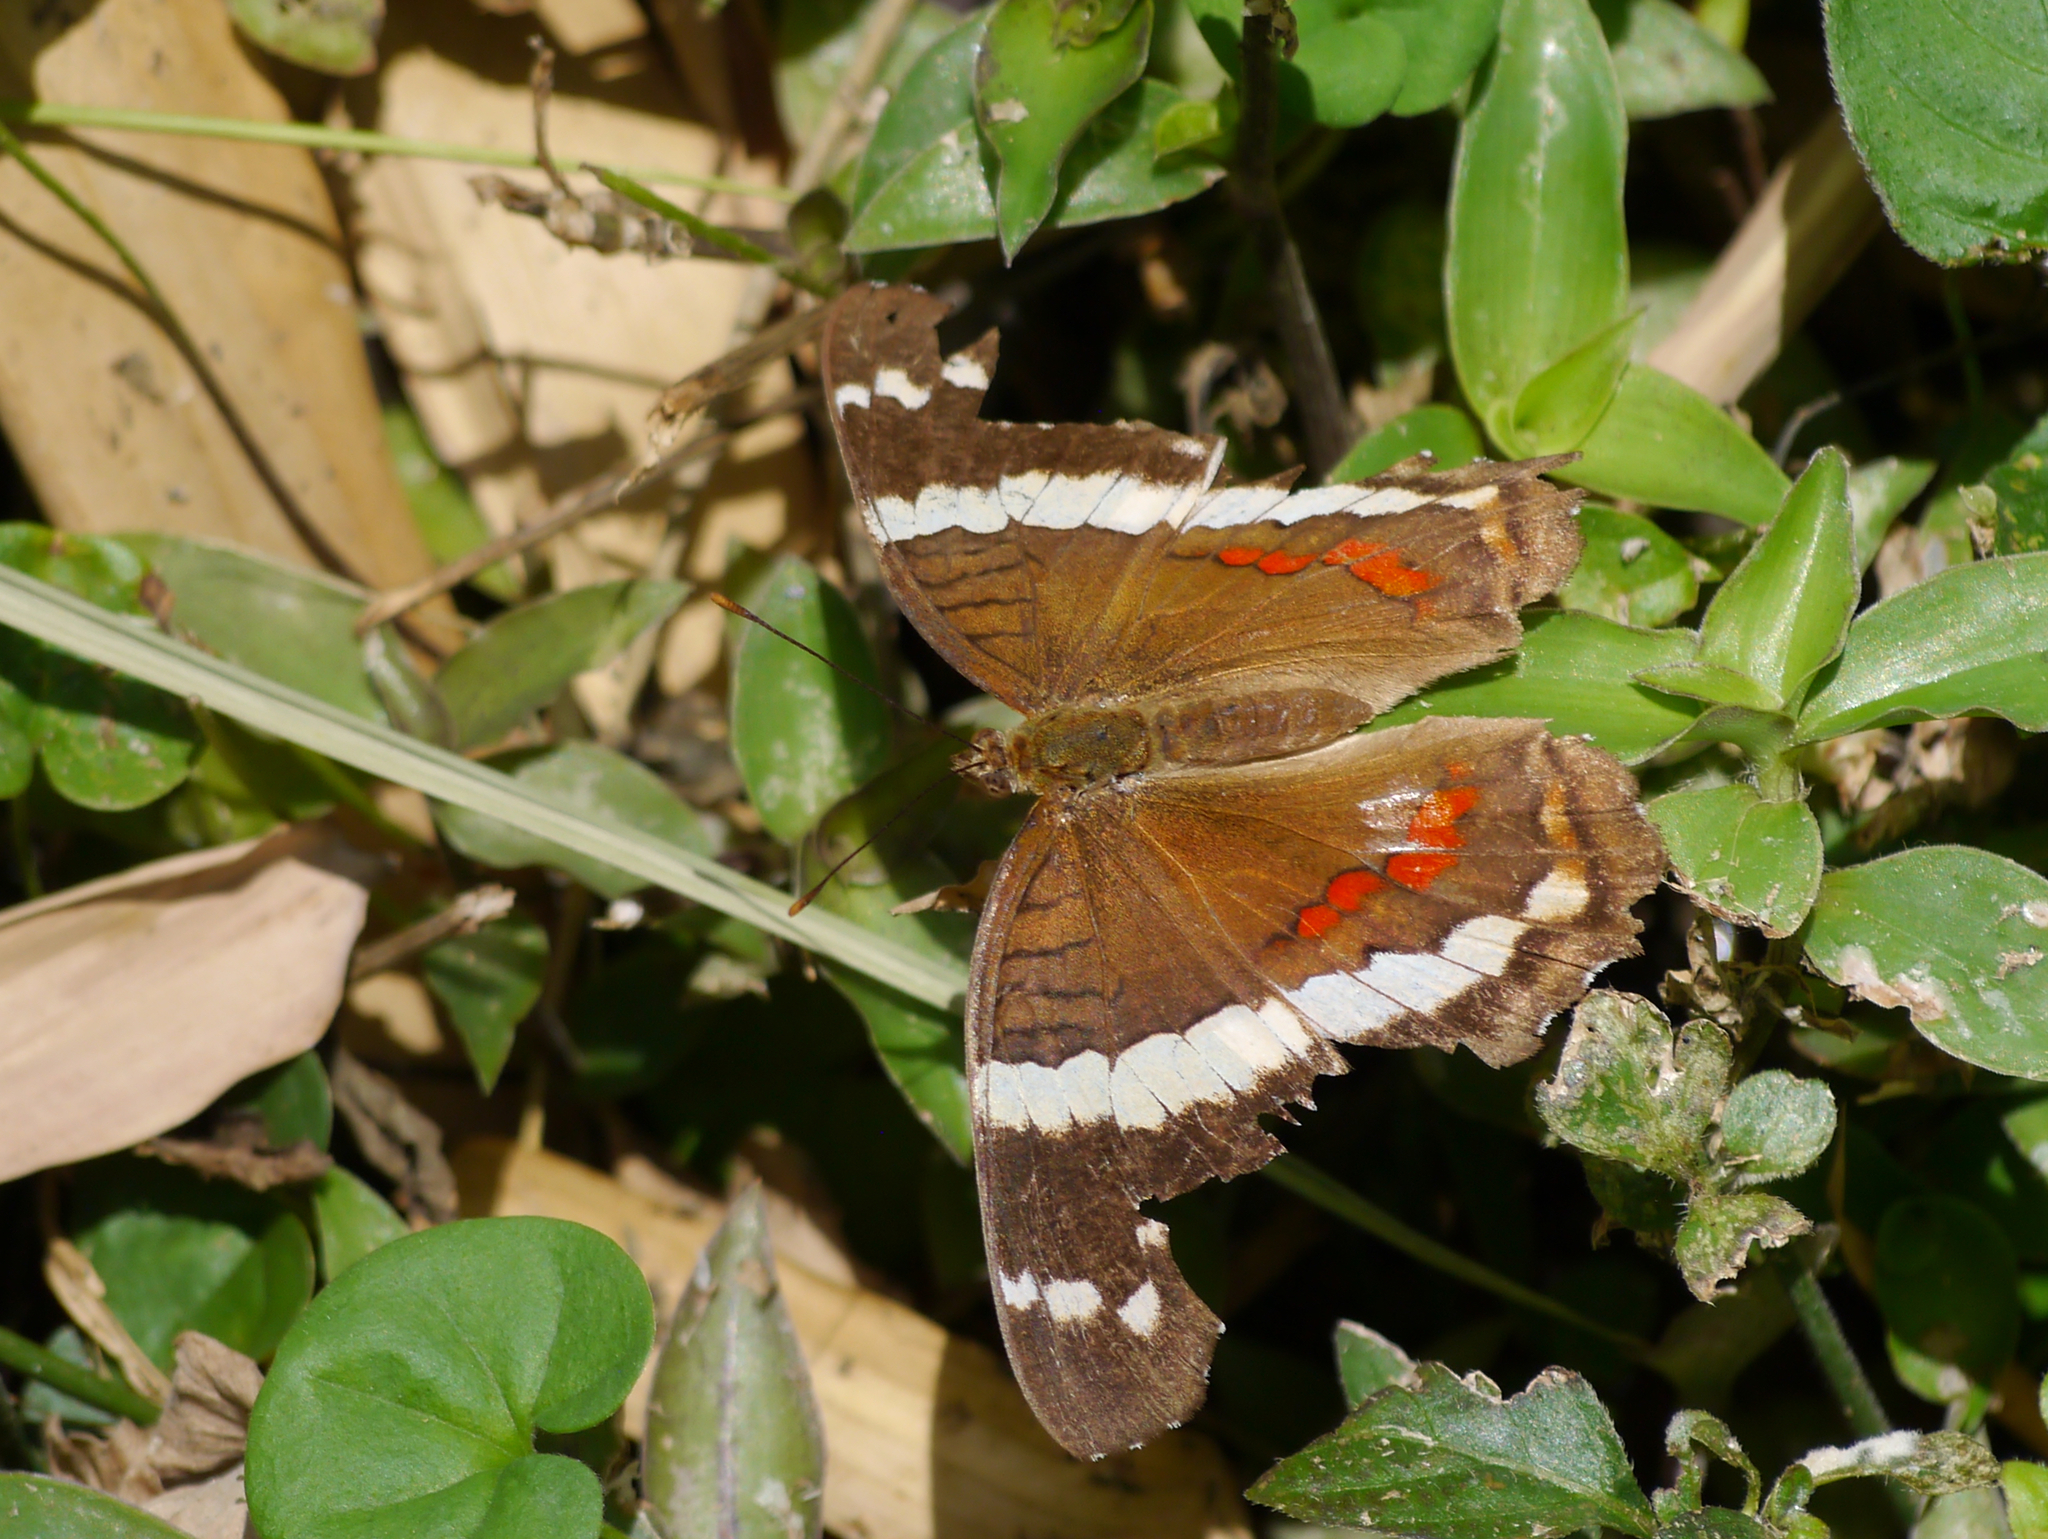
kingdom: Animalia
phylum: Arthropoda
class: Insecta
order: Lepidoptera
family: Nymphalidae
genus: Anartia
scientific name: Anartia fatima
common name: Banded peacock
